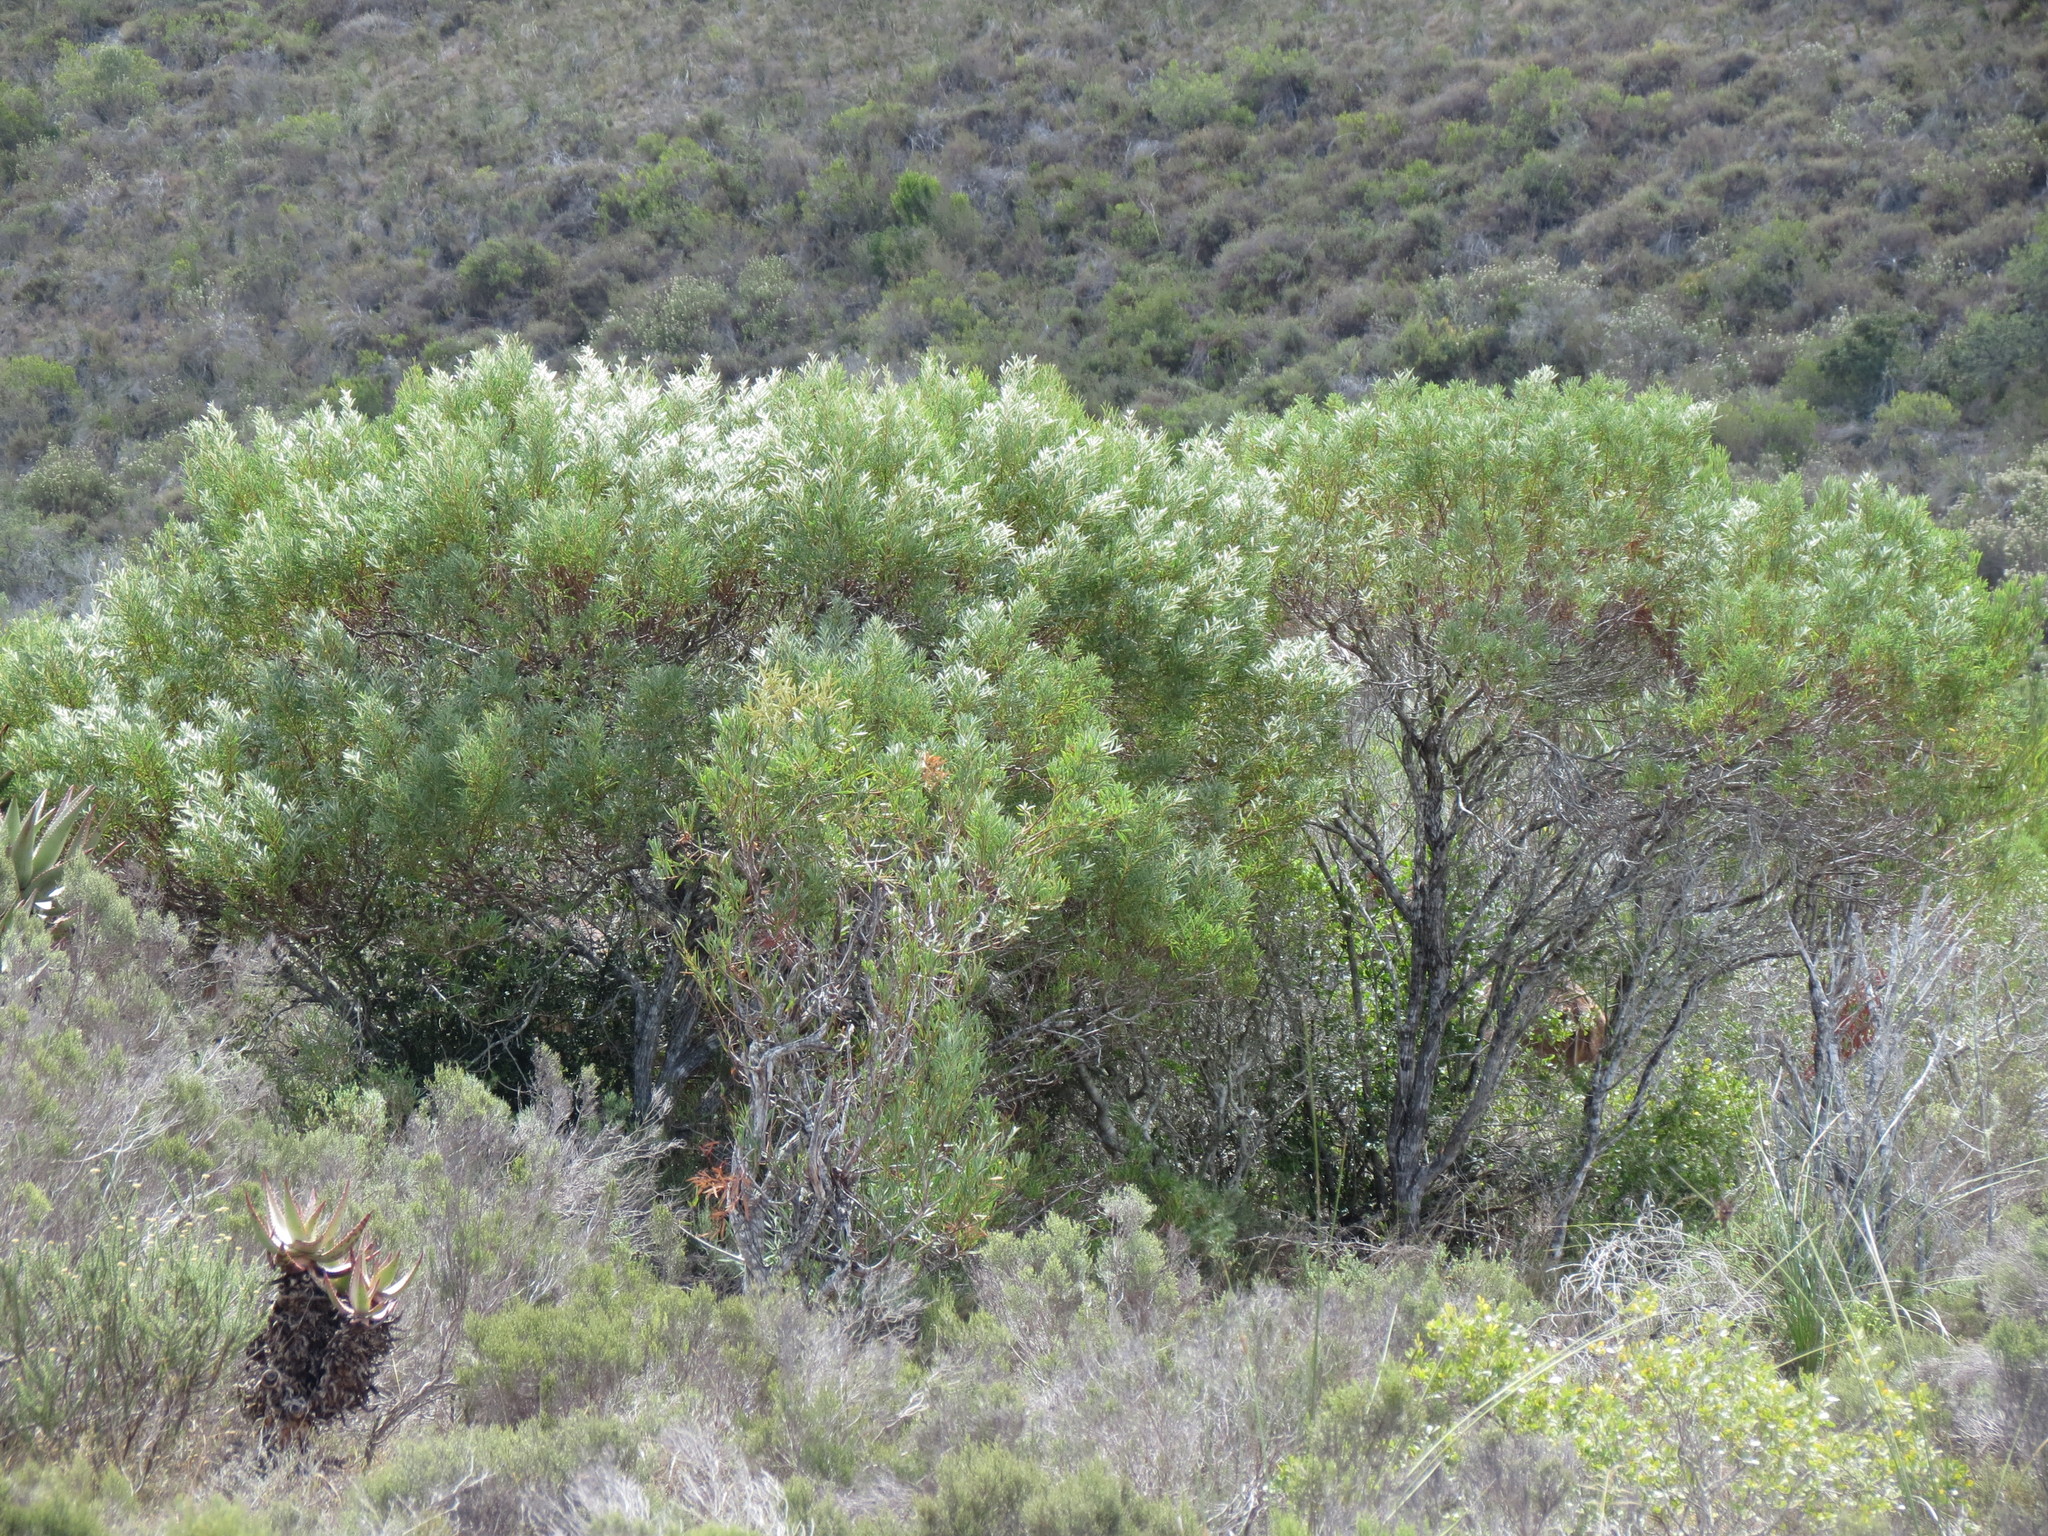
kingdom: Plantae
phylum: Tracheophyta
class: Magnoliopsida
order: Fabales
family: Fabaceae
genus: Acacia
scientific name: Acacia cyclops
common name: Coastal wattle
